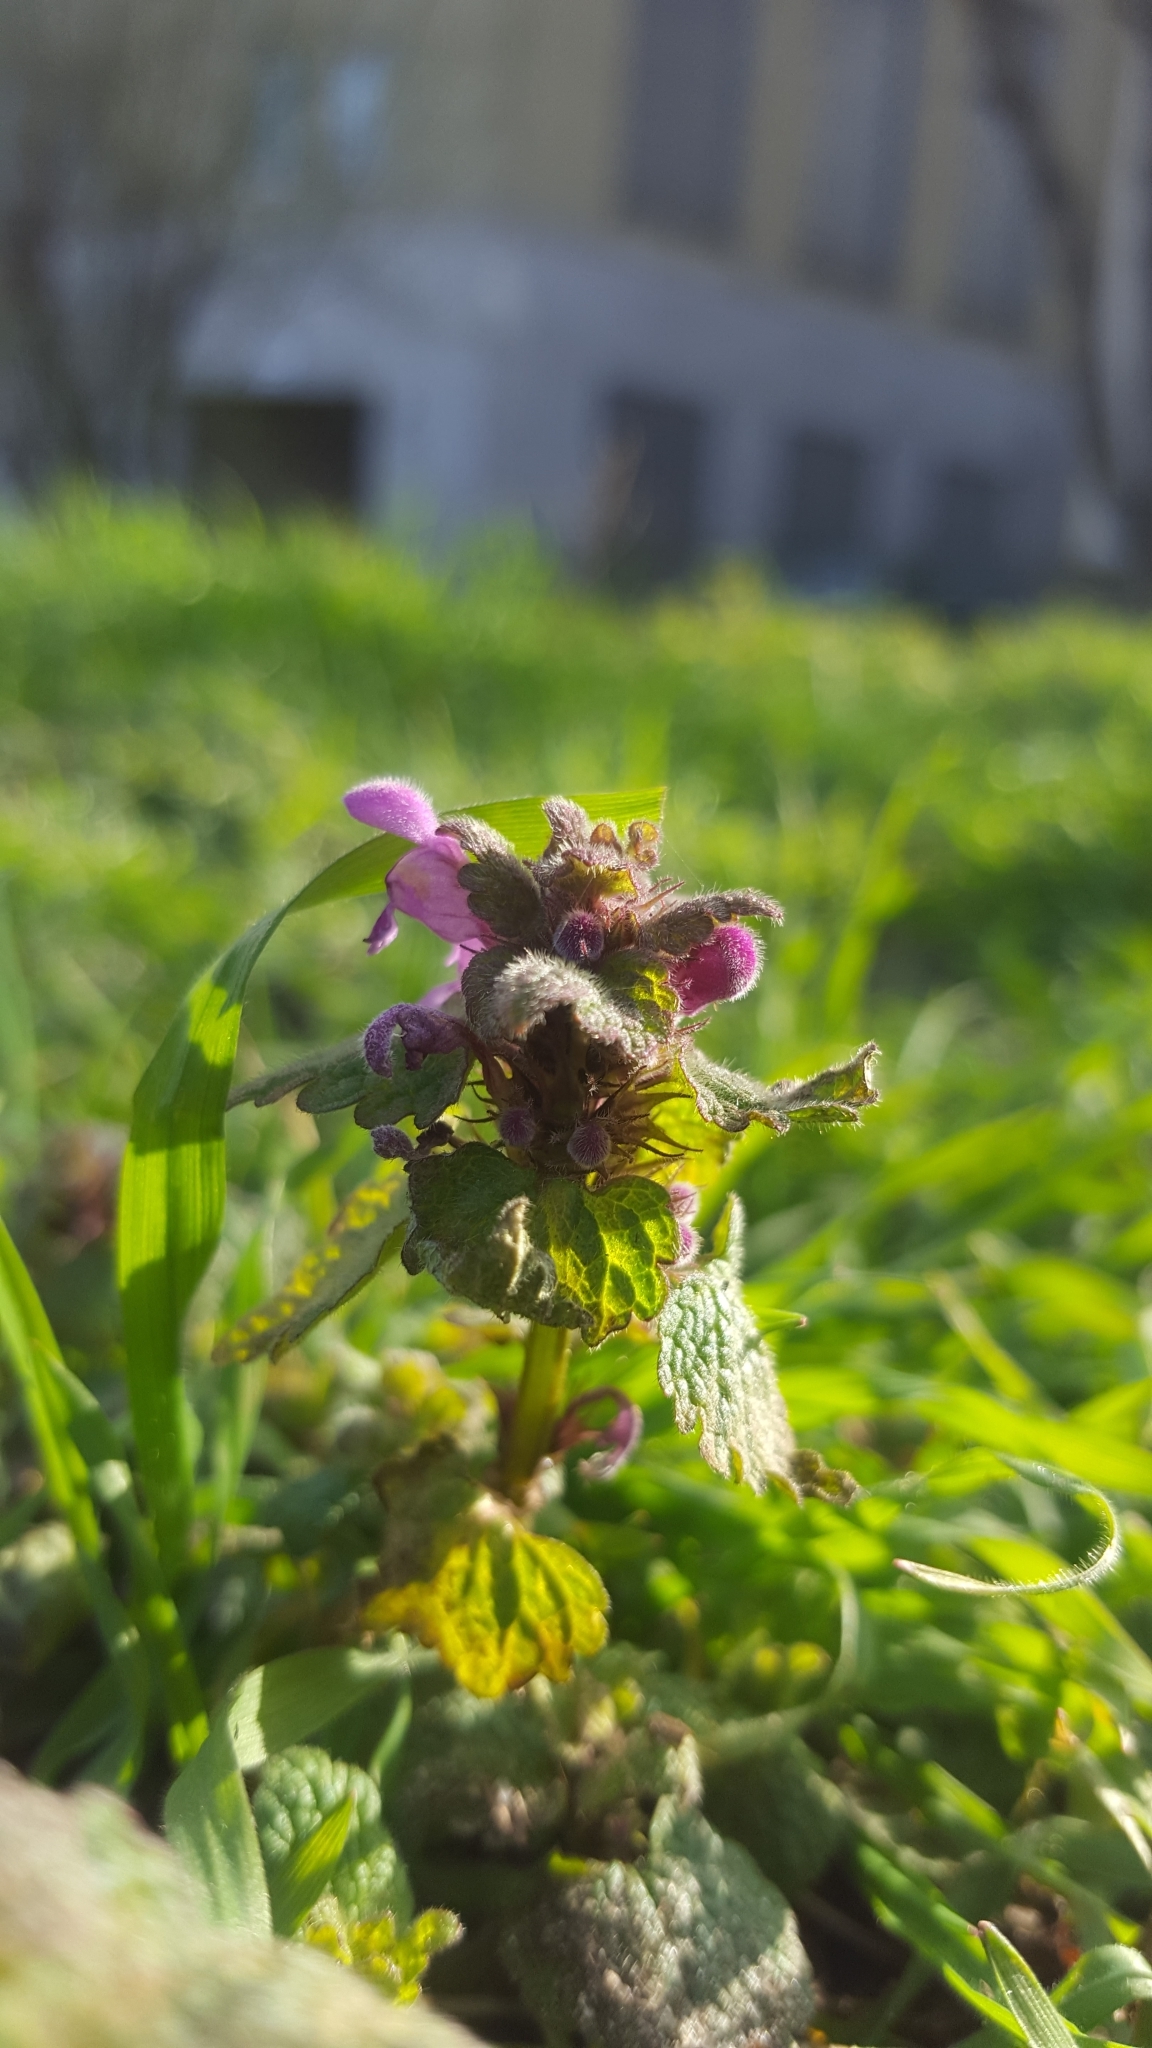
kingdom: Plantae
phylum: Tracheophyta
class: Magnoliopsida
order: Lamiales
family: Lamiaceae
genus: Lamium
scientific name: Lamium purpureum
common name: Red dead-nettle
